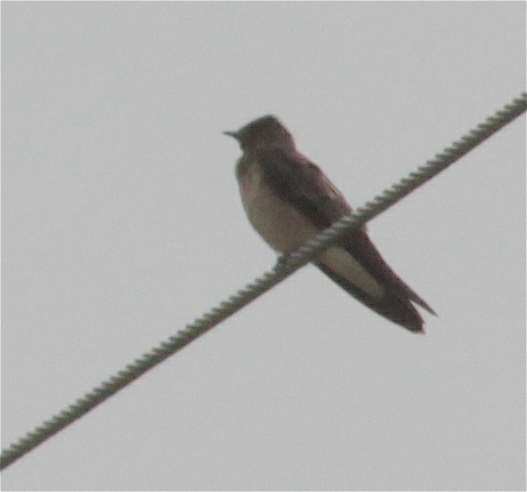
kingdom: Animalia
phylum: Chordata
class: Aves
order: Passeriformes
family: Hirundinidae
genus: Stelgidopteryx
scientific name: Stelgidopteryx ruficollis
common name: Southern rough-winged swallow
